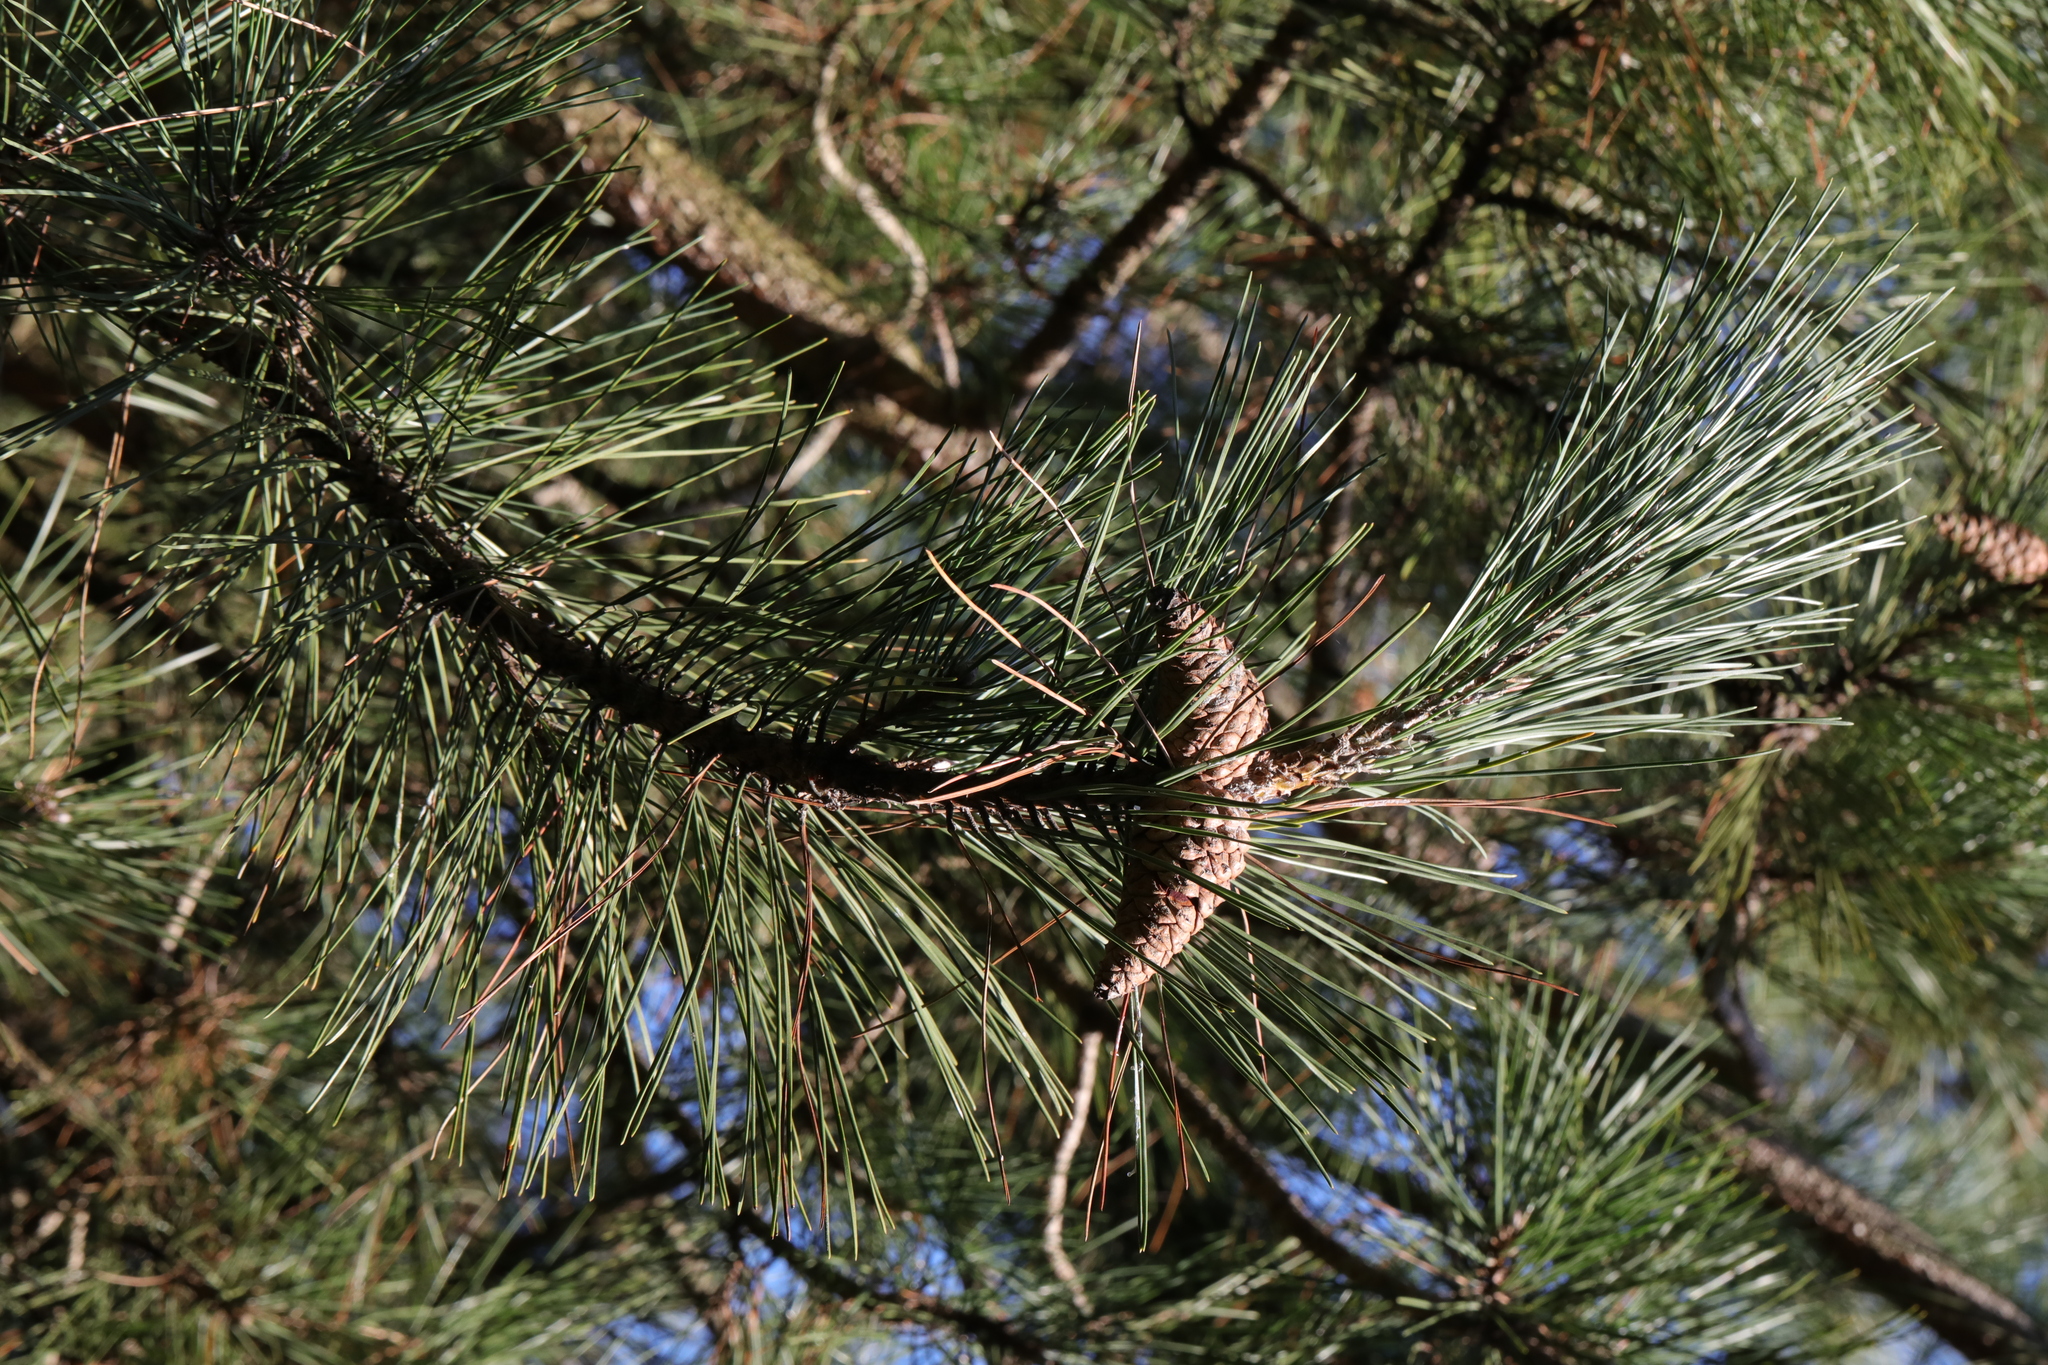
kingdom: Plantae
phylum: Tracheophyta
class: Pinopsida
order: Pinales
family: Pinaceae
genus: Pinus
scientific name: Pinus nigra
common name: Austrian pine
